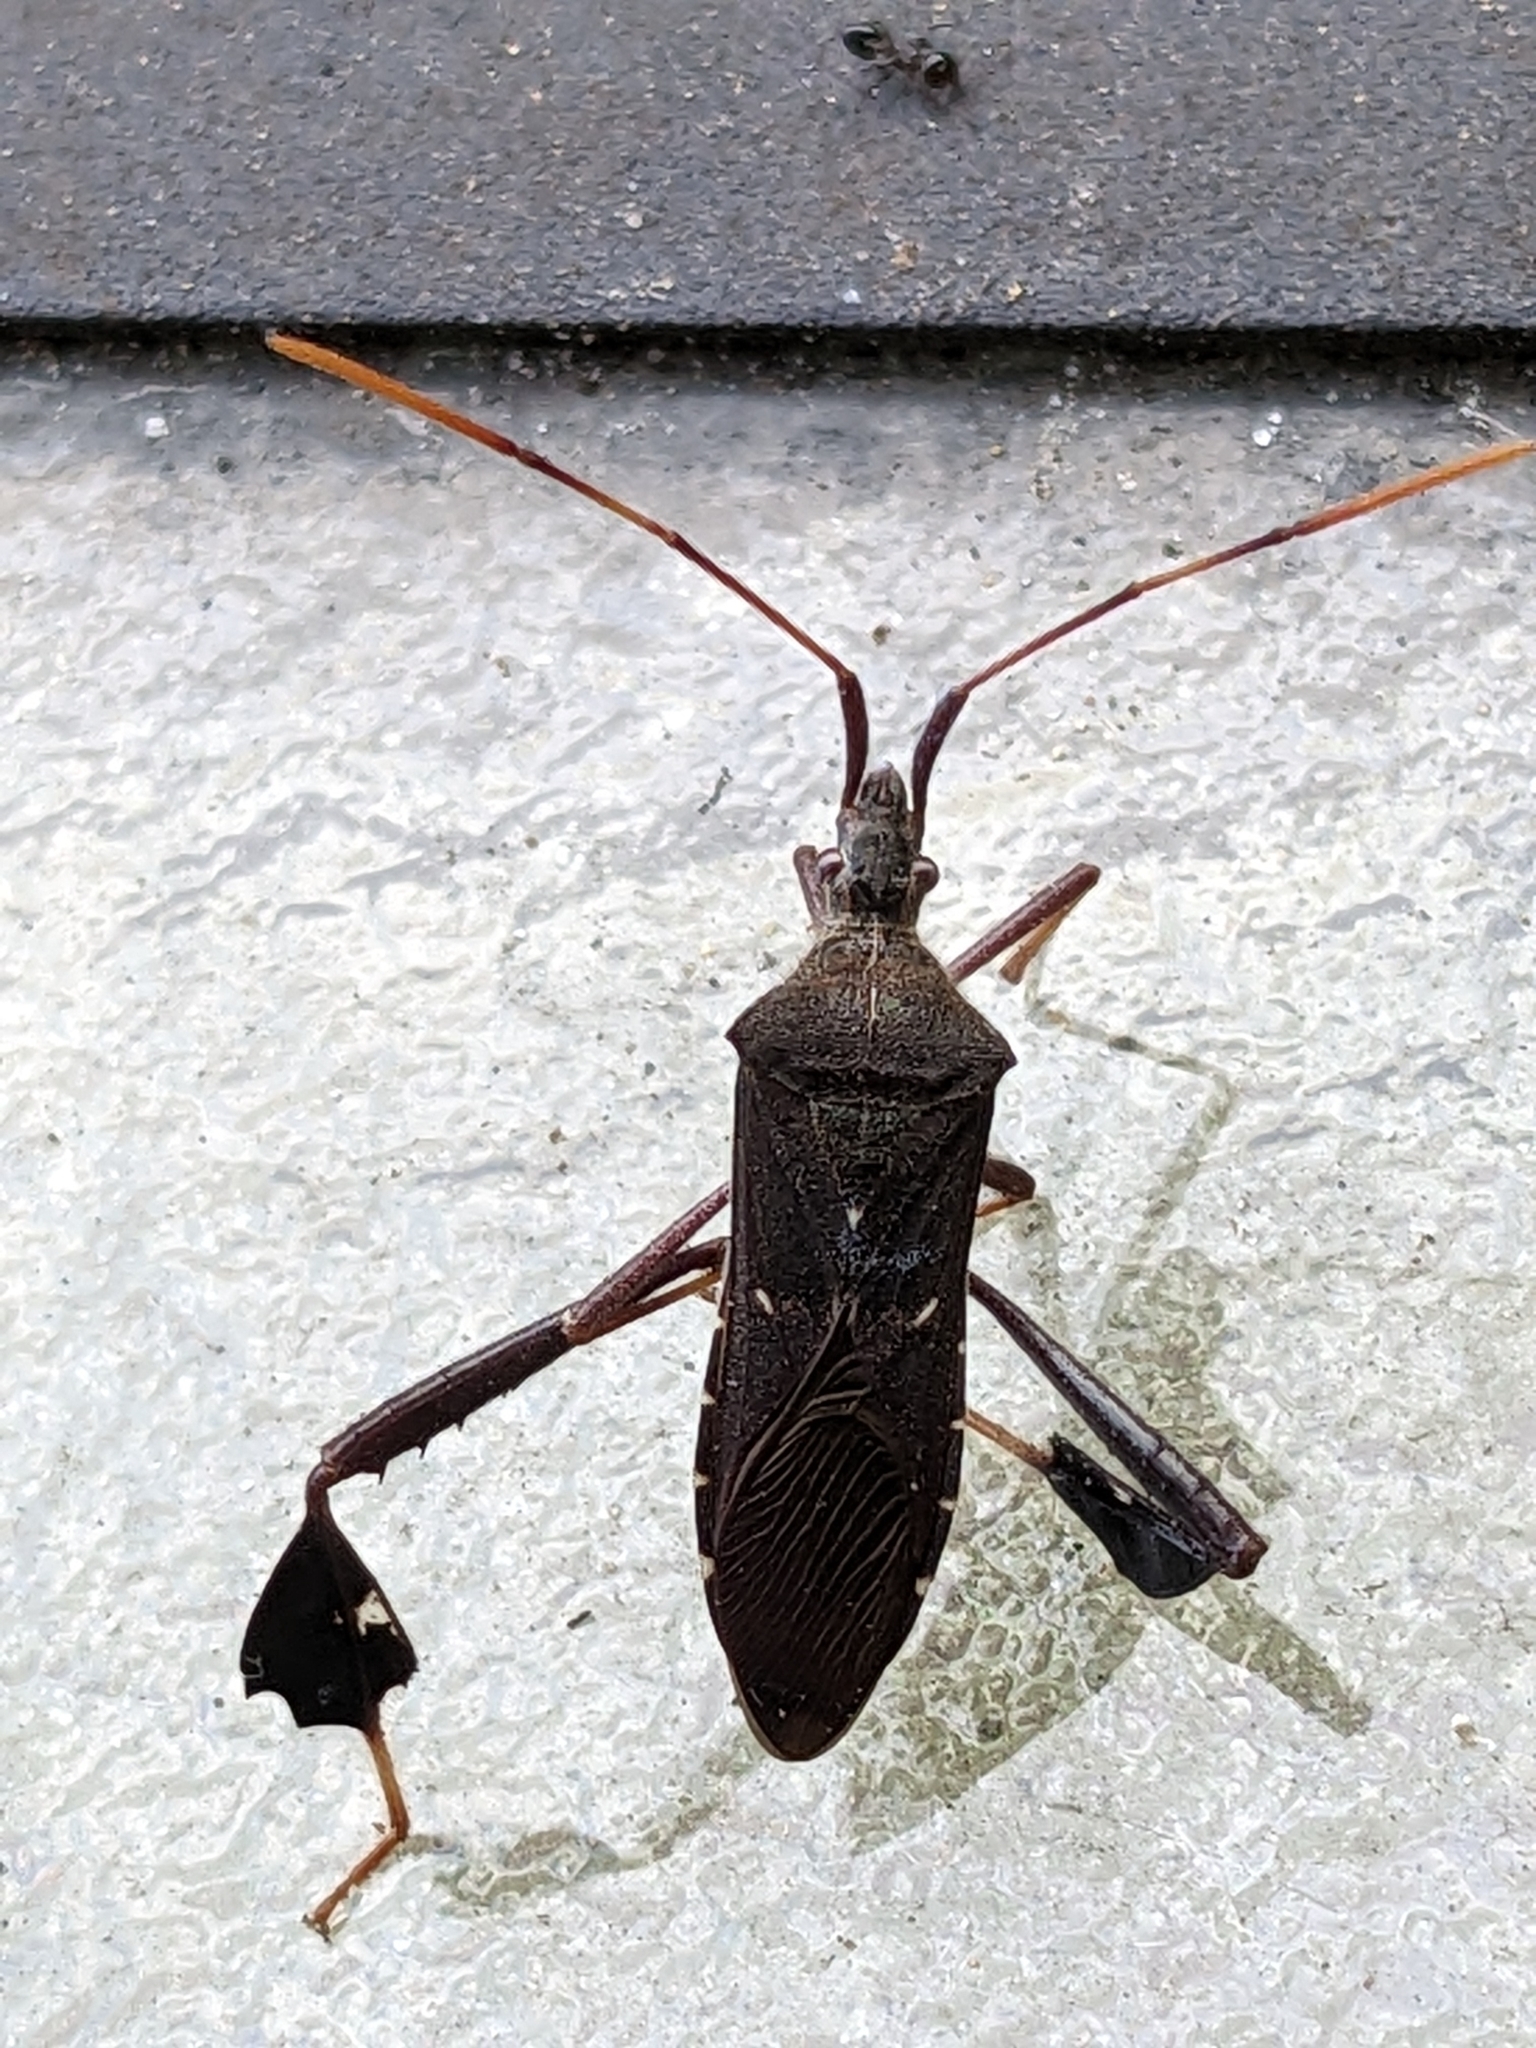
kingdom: Animalia
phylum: Arthropoda
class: Insecta
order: Hemiptera
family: Coreidae
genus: Leptoglossus
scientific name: Leptoglossus oppositus
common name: Northern leaf-footed bug
